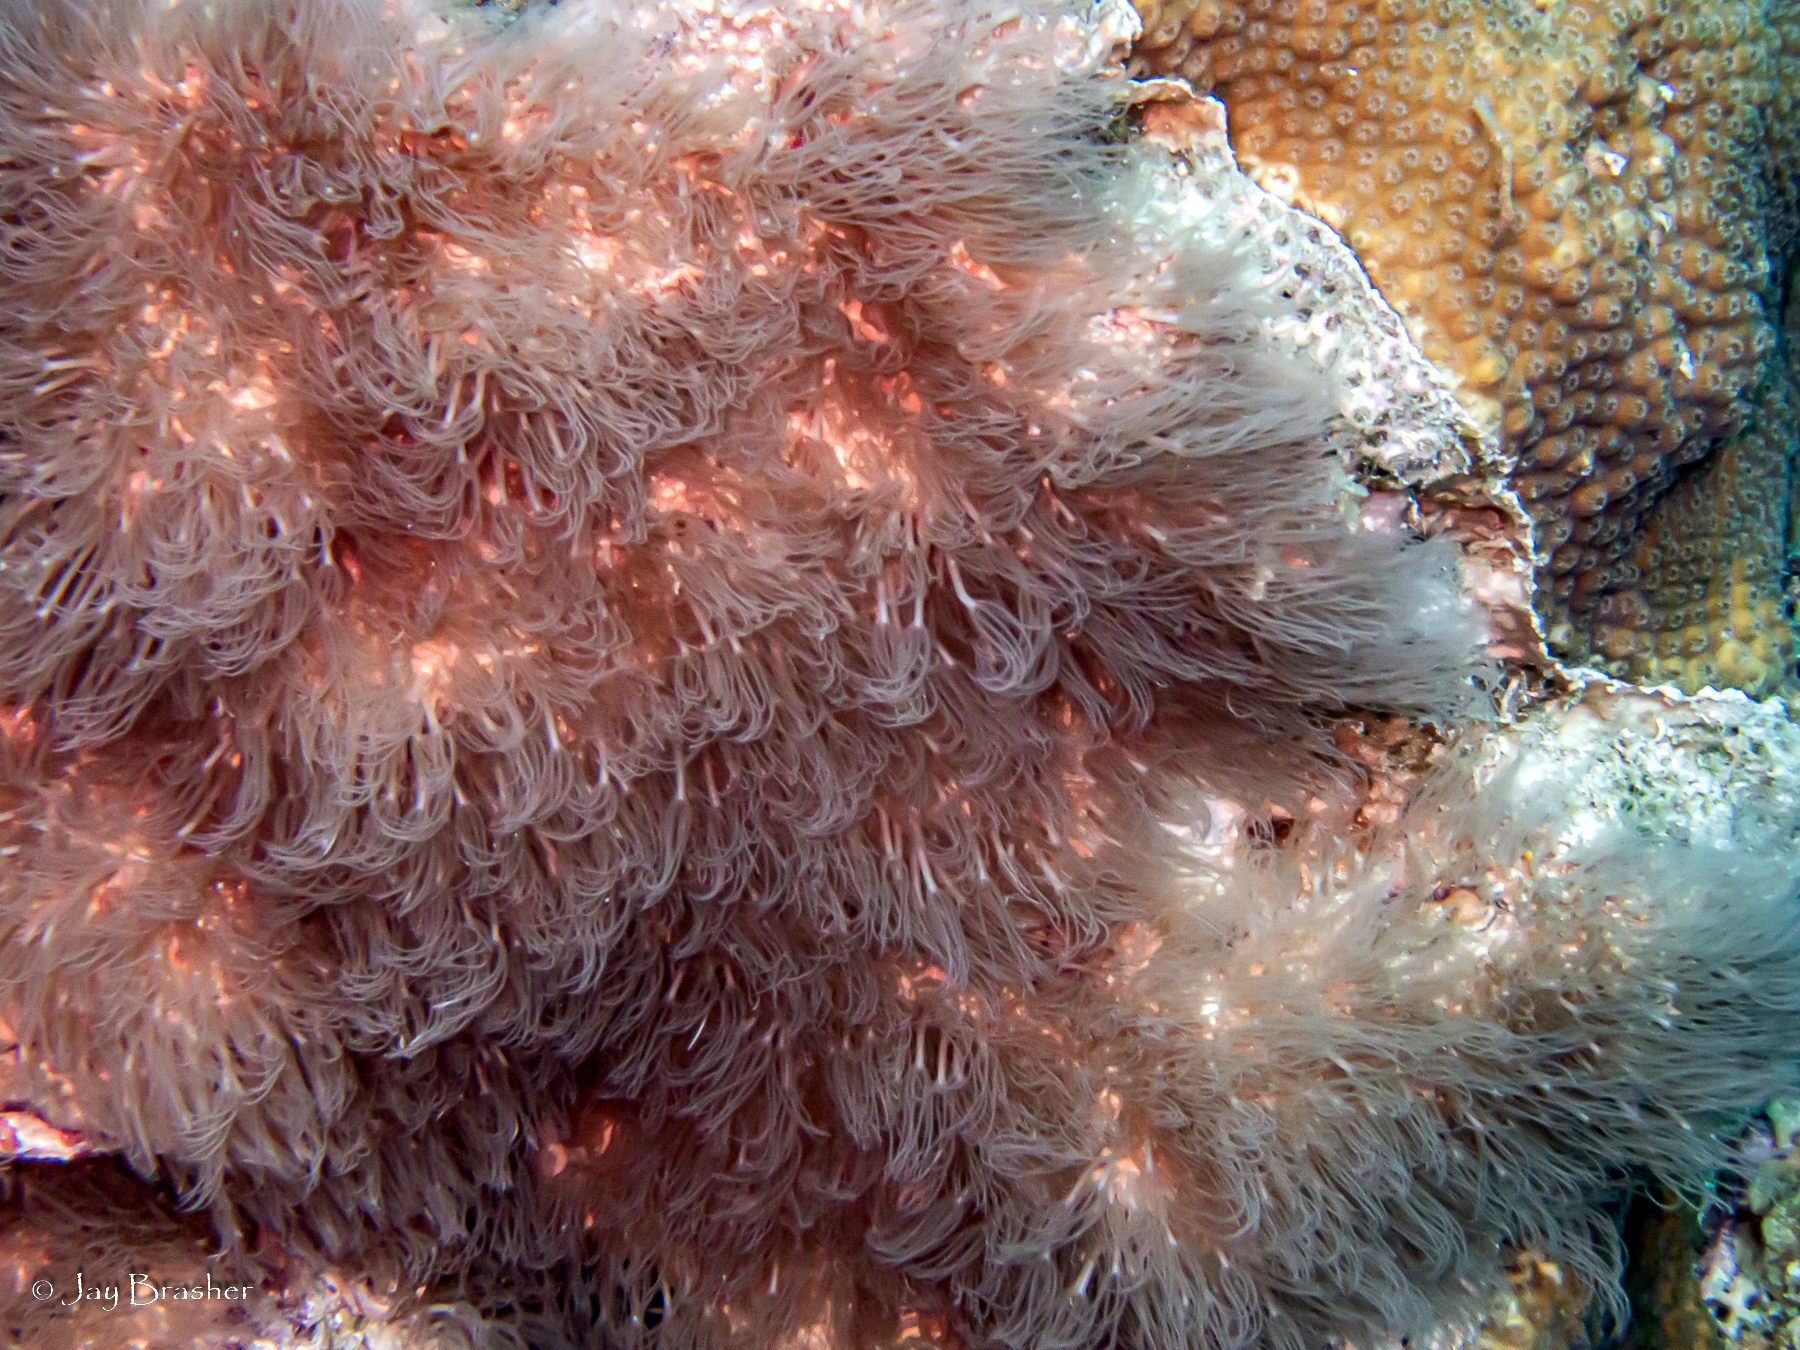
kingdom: Animalia
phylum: Cnidaria
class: Anthozoa
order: Scleralcyonacea
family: Erythropodiidae
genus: Erythropodium
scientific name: Erythropodium caribaeorum
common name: Encrusting gorgonian
